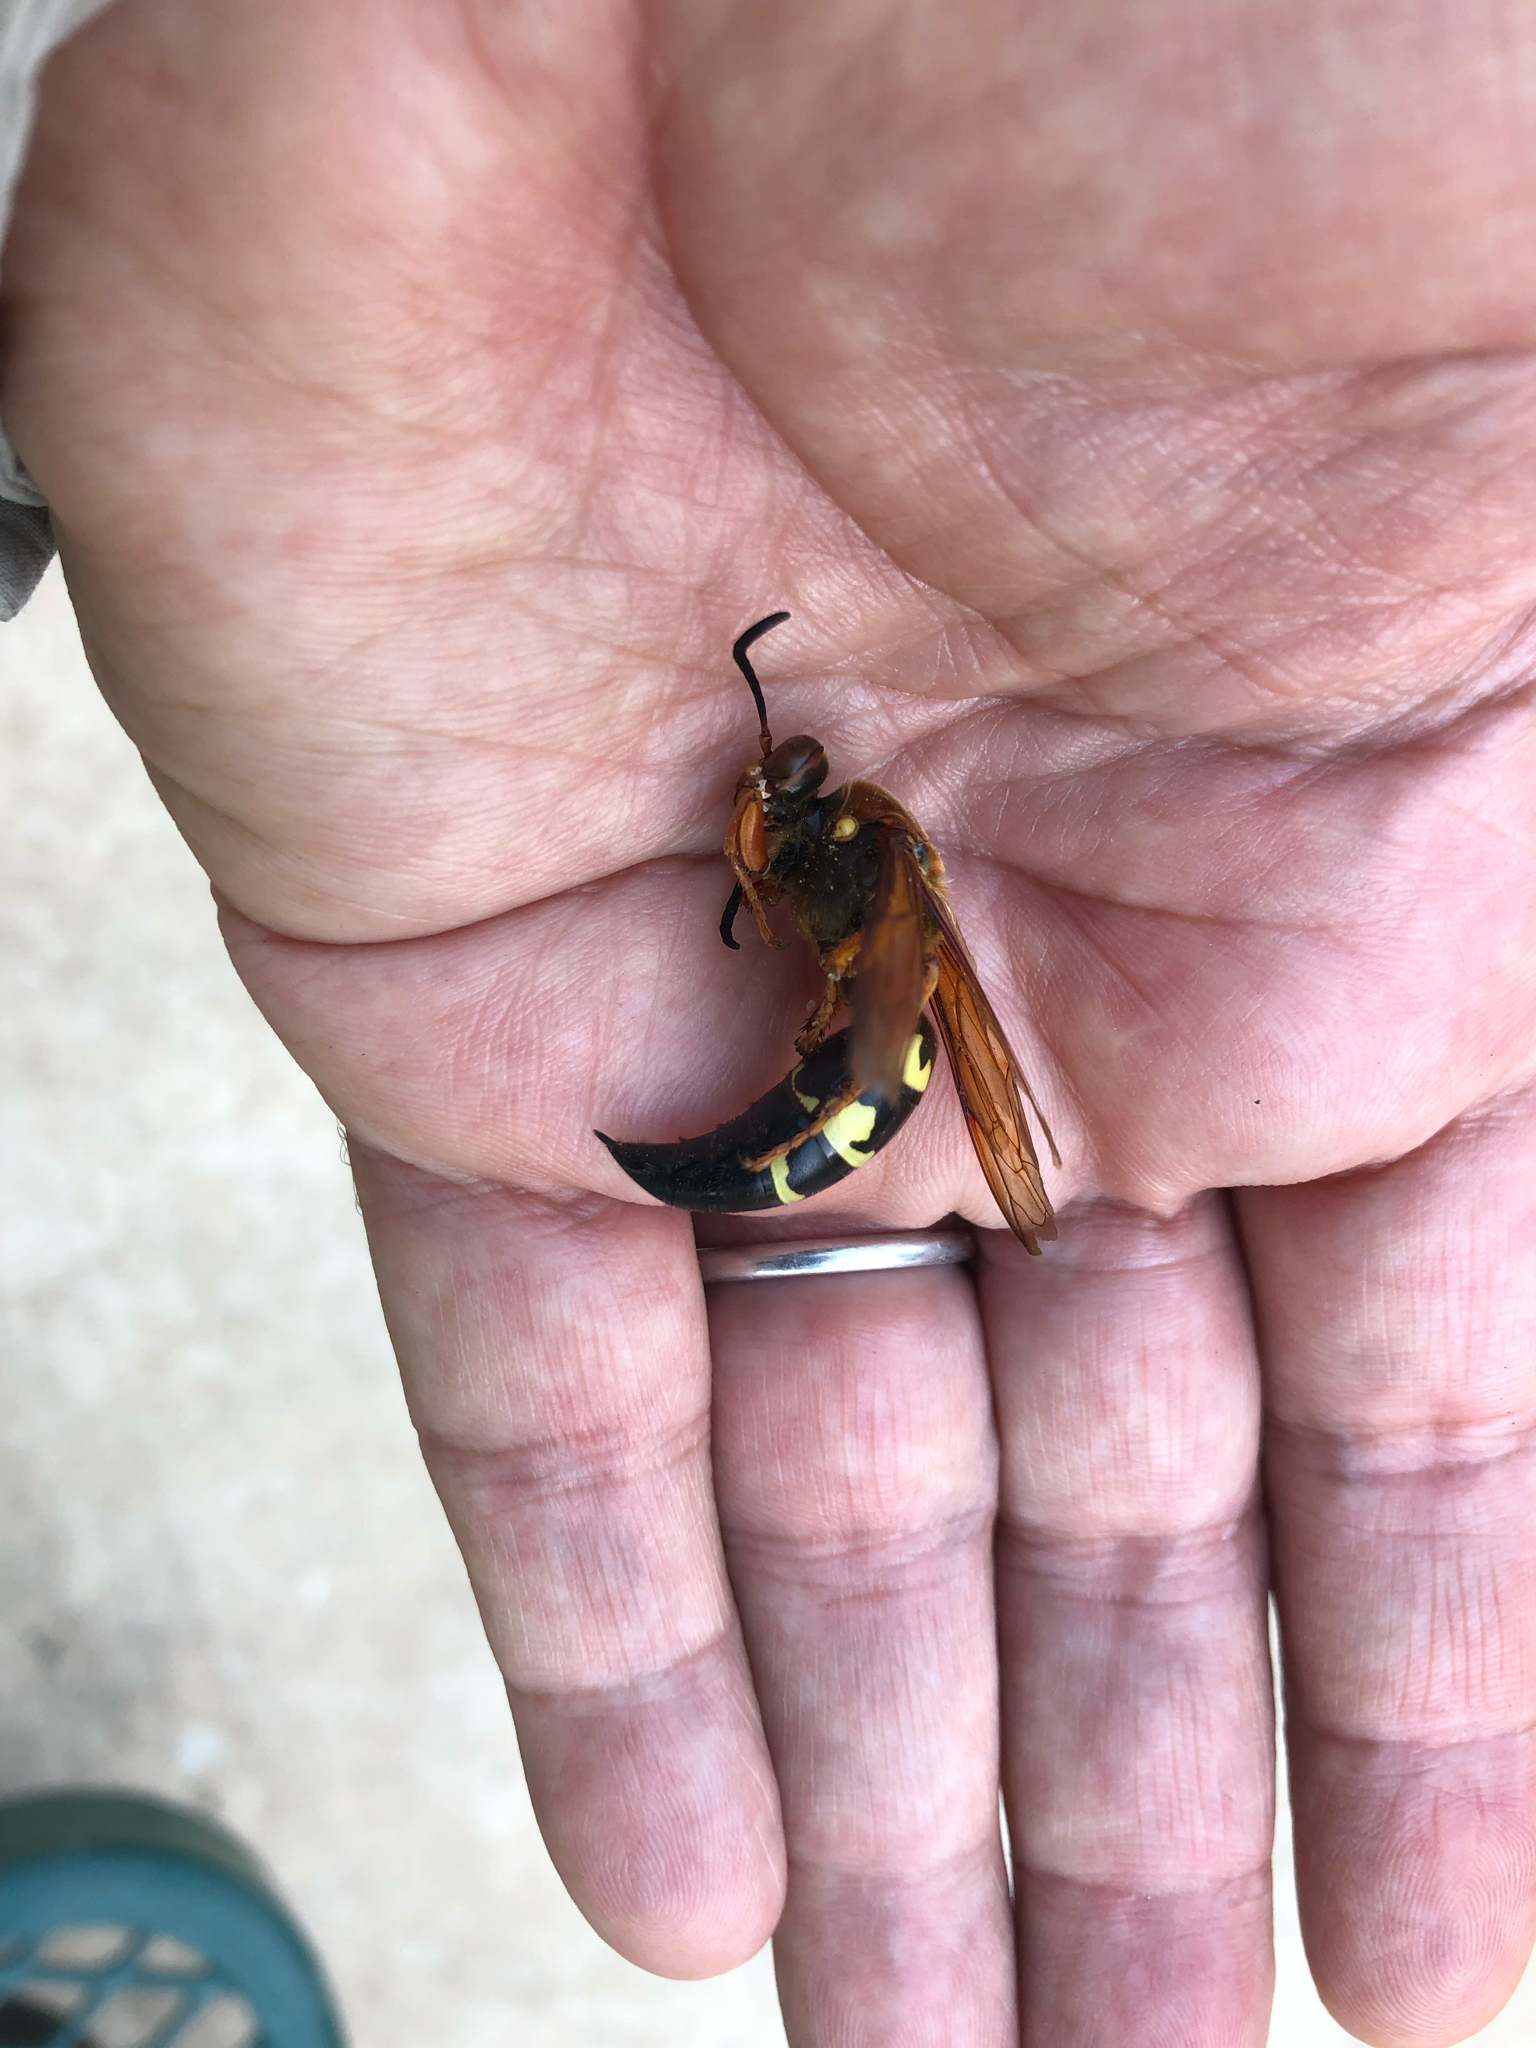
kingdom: Animalia
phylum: Arthropoda
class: Insecta
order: Hymenoptera
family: Crabronidae
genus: Sphecius
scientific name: Sphecius speciosus
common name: Cicada killer
